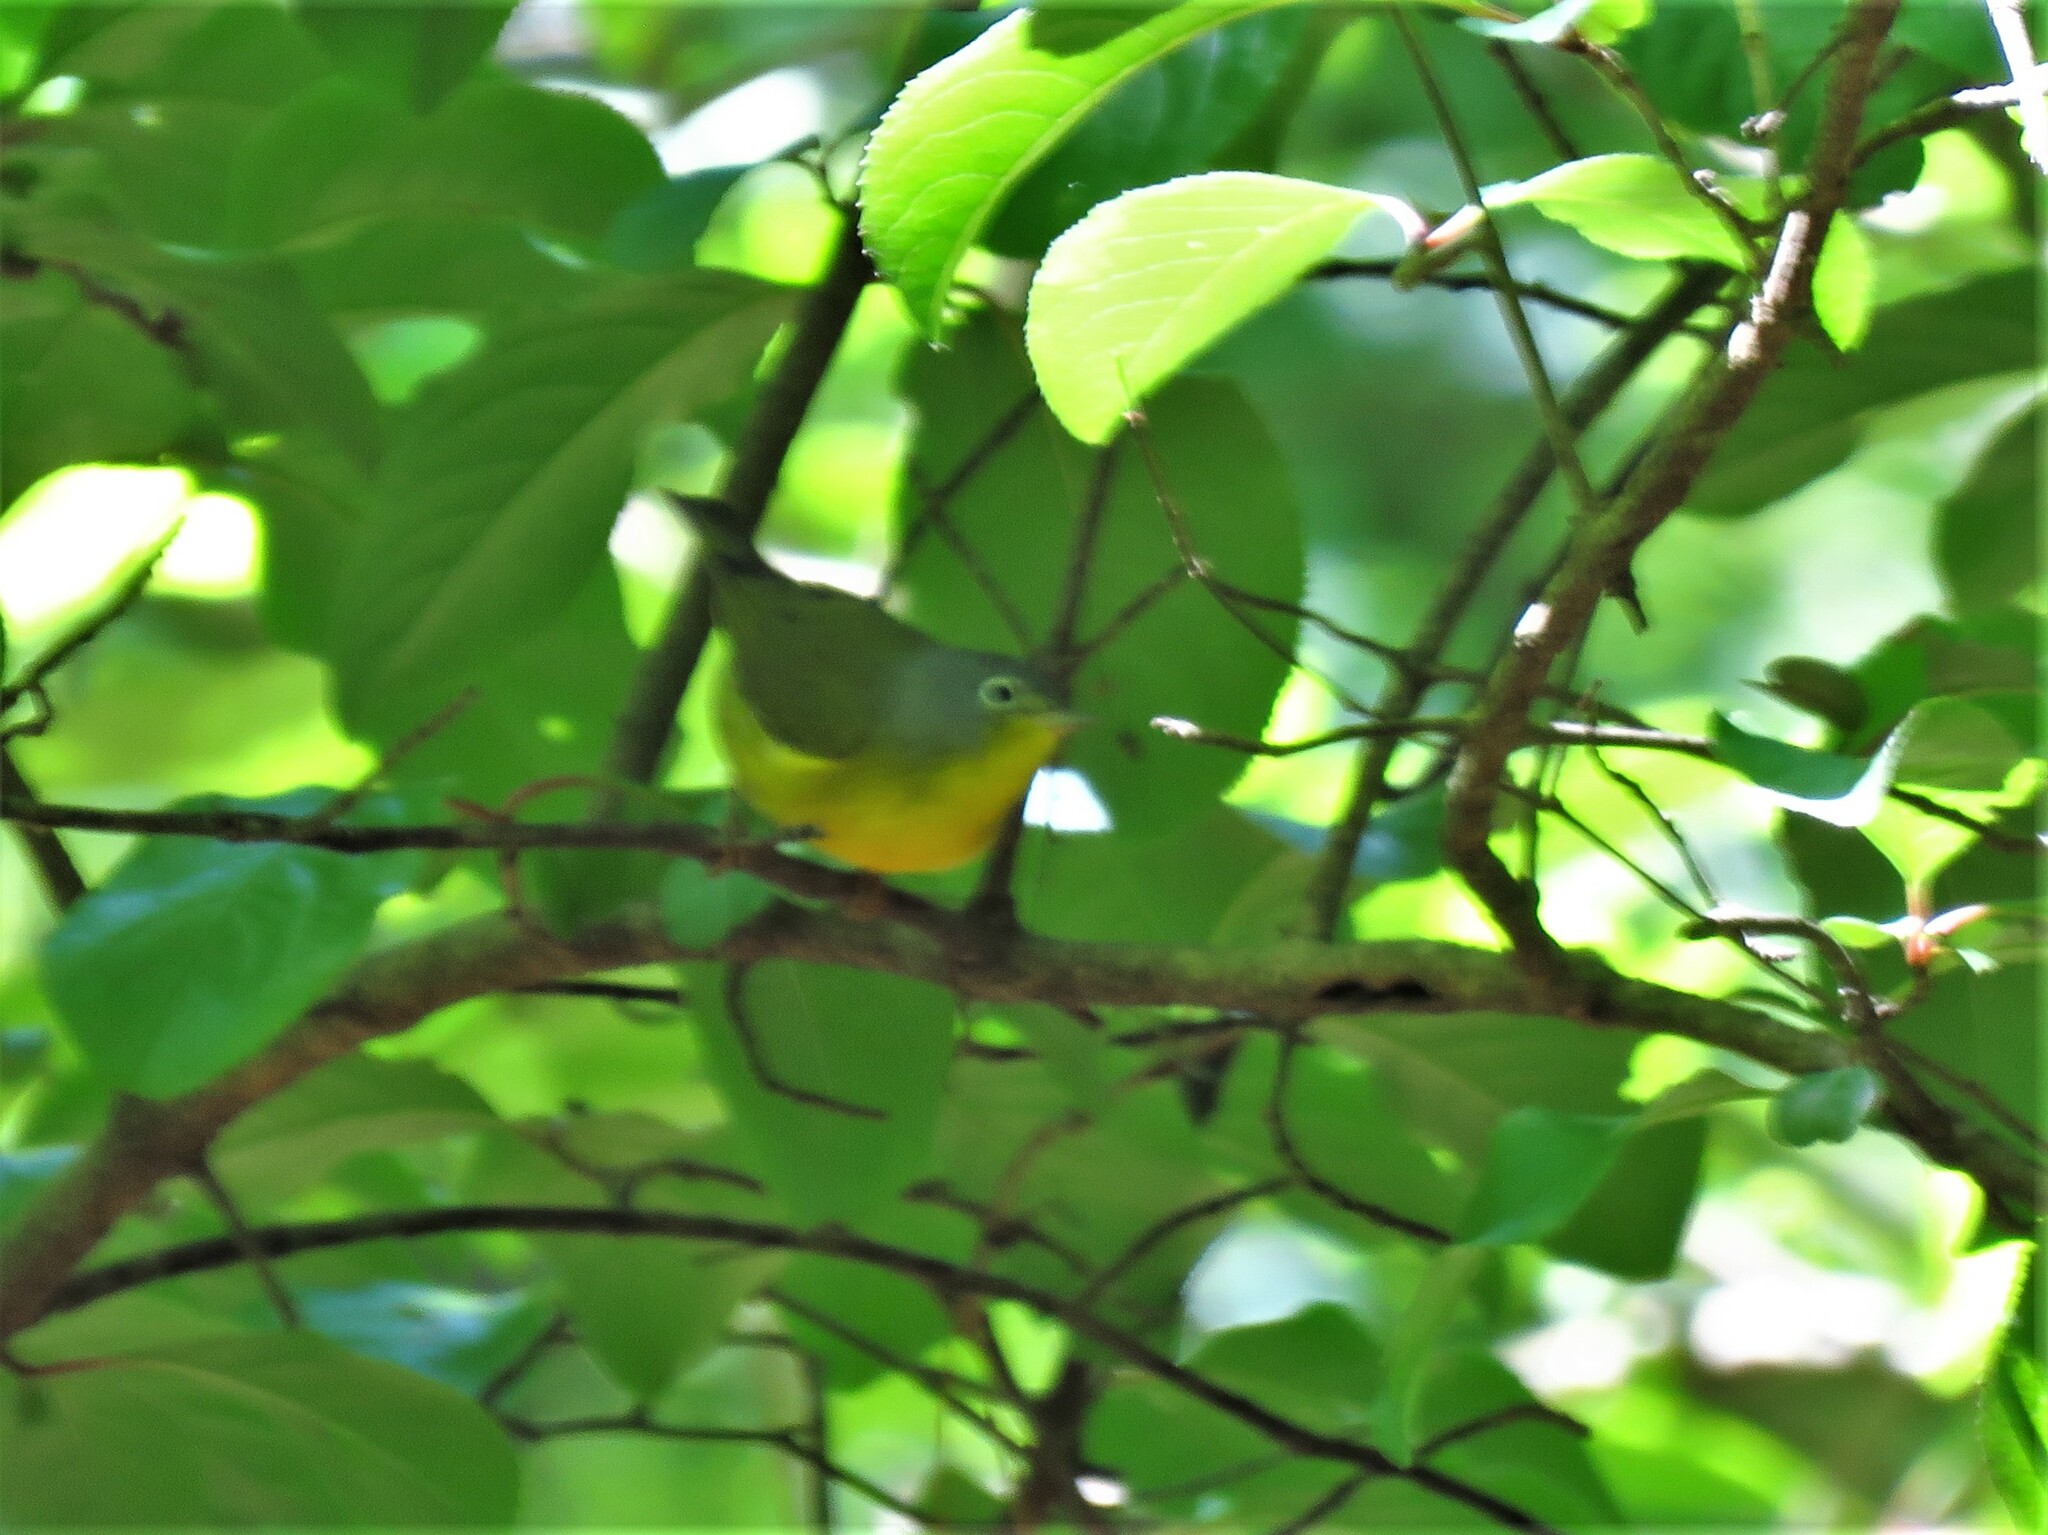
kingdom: Animalia
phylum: Chordata
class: Aves
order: Passeriformes
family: Parulidae
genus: Leiothlypis
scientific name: Leiothlypis ruficapilla
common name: Nashville warbler
